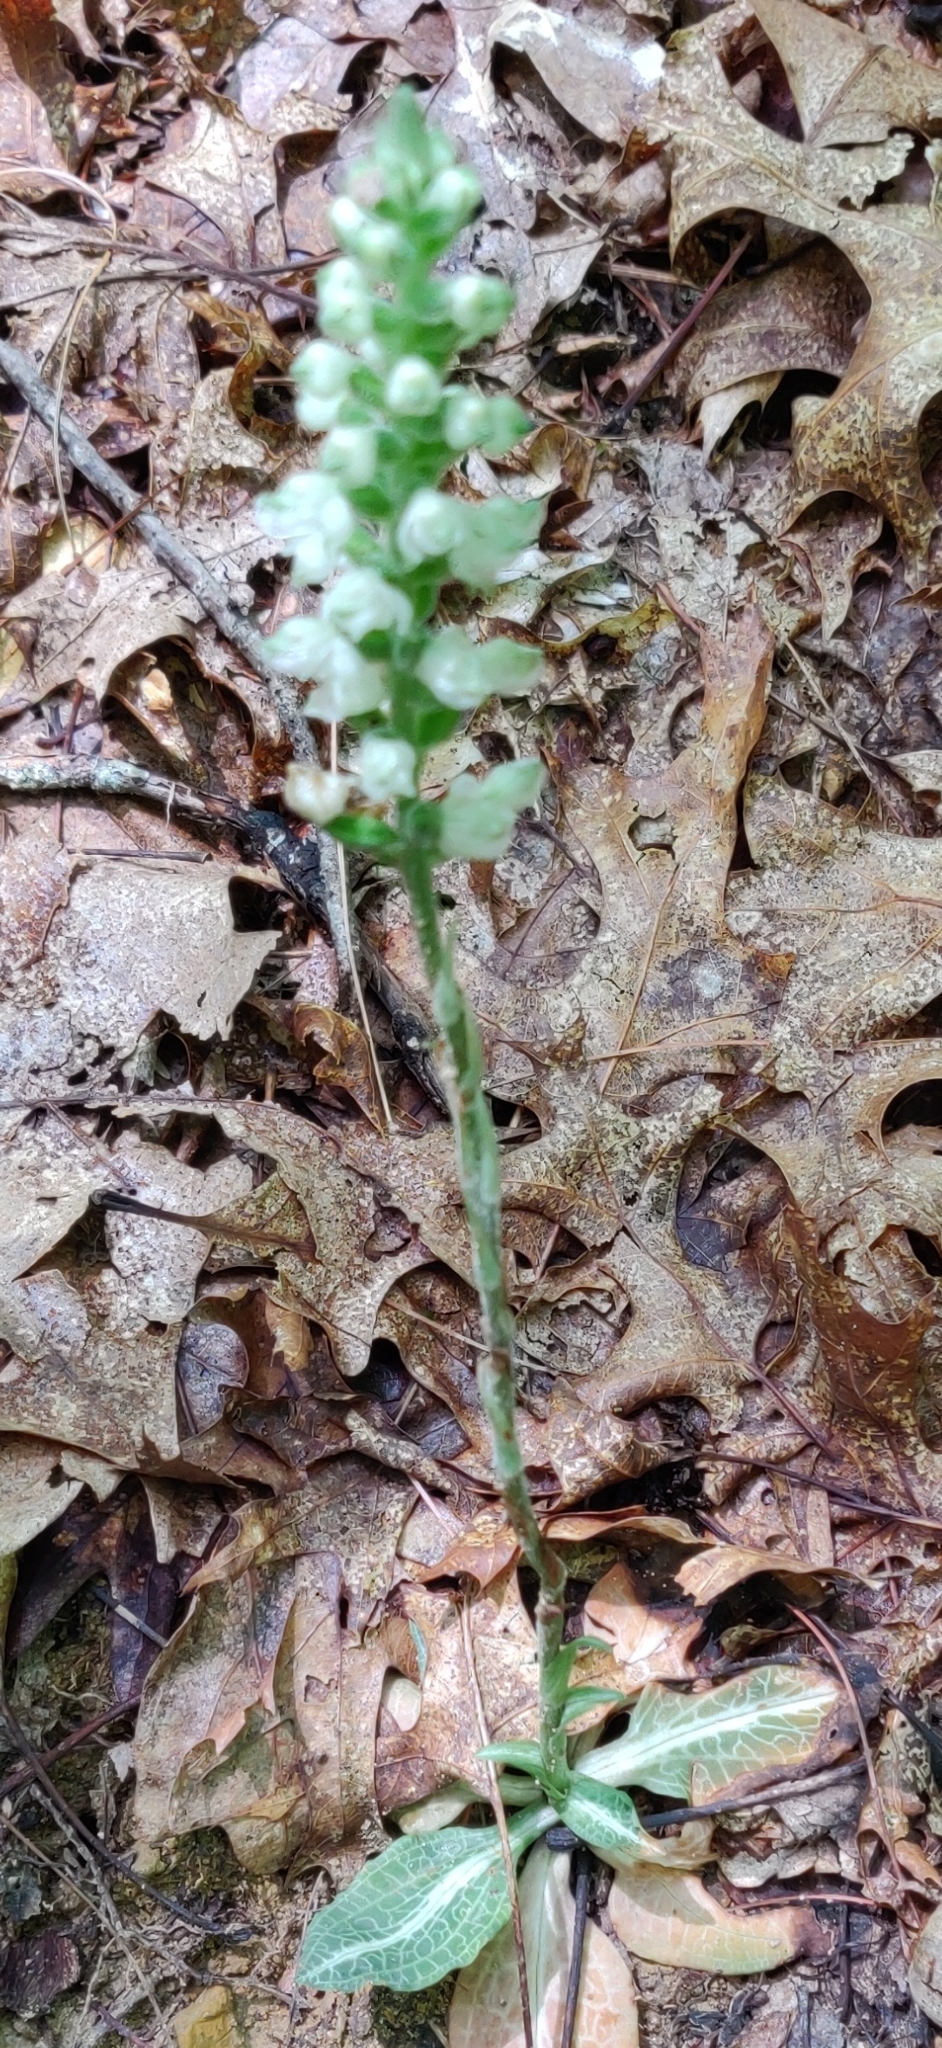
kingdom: Plantae
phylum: Tracheophyta
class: Liliopsida
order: Asparagales
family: Orchidaceae
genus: Goodyera
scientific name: Goodyera pubescens
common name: Downy rattlesnake-plantain
